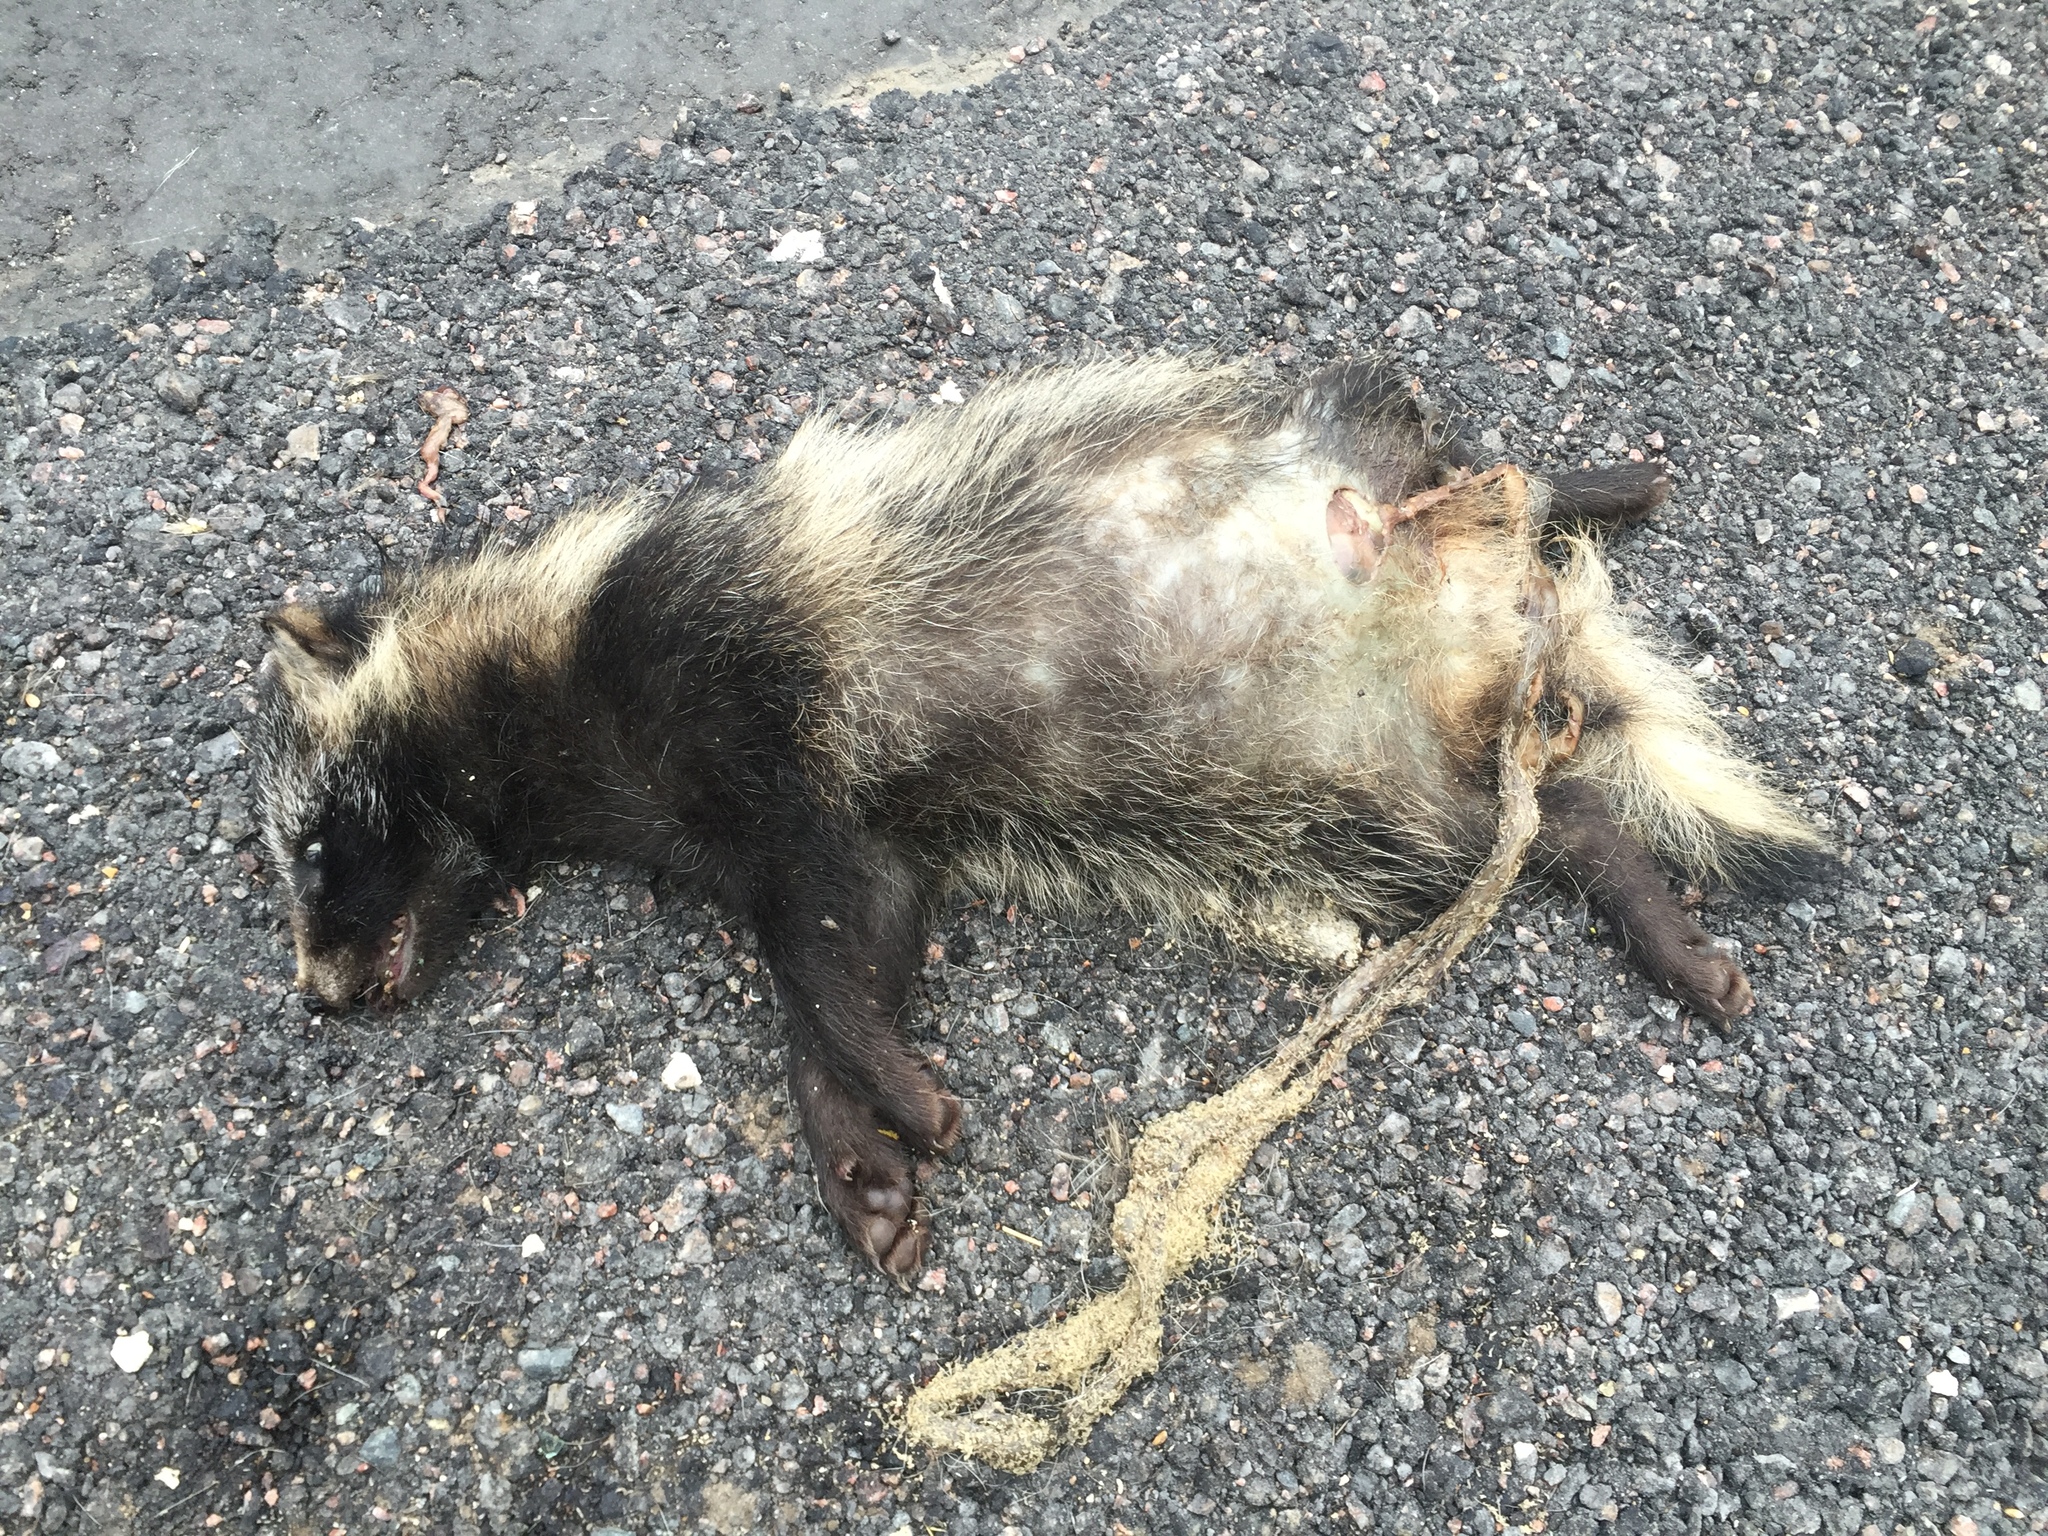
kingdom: Animalia
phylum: Chordata
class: Mammalia
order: Carnivora
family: Canidae
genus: Nyctereutes
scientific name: Nyctereutes procyonoides
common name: Raccoon dog
